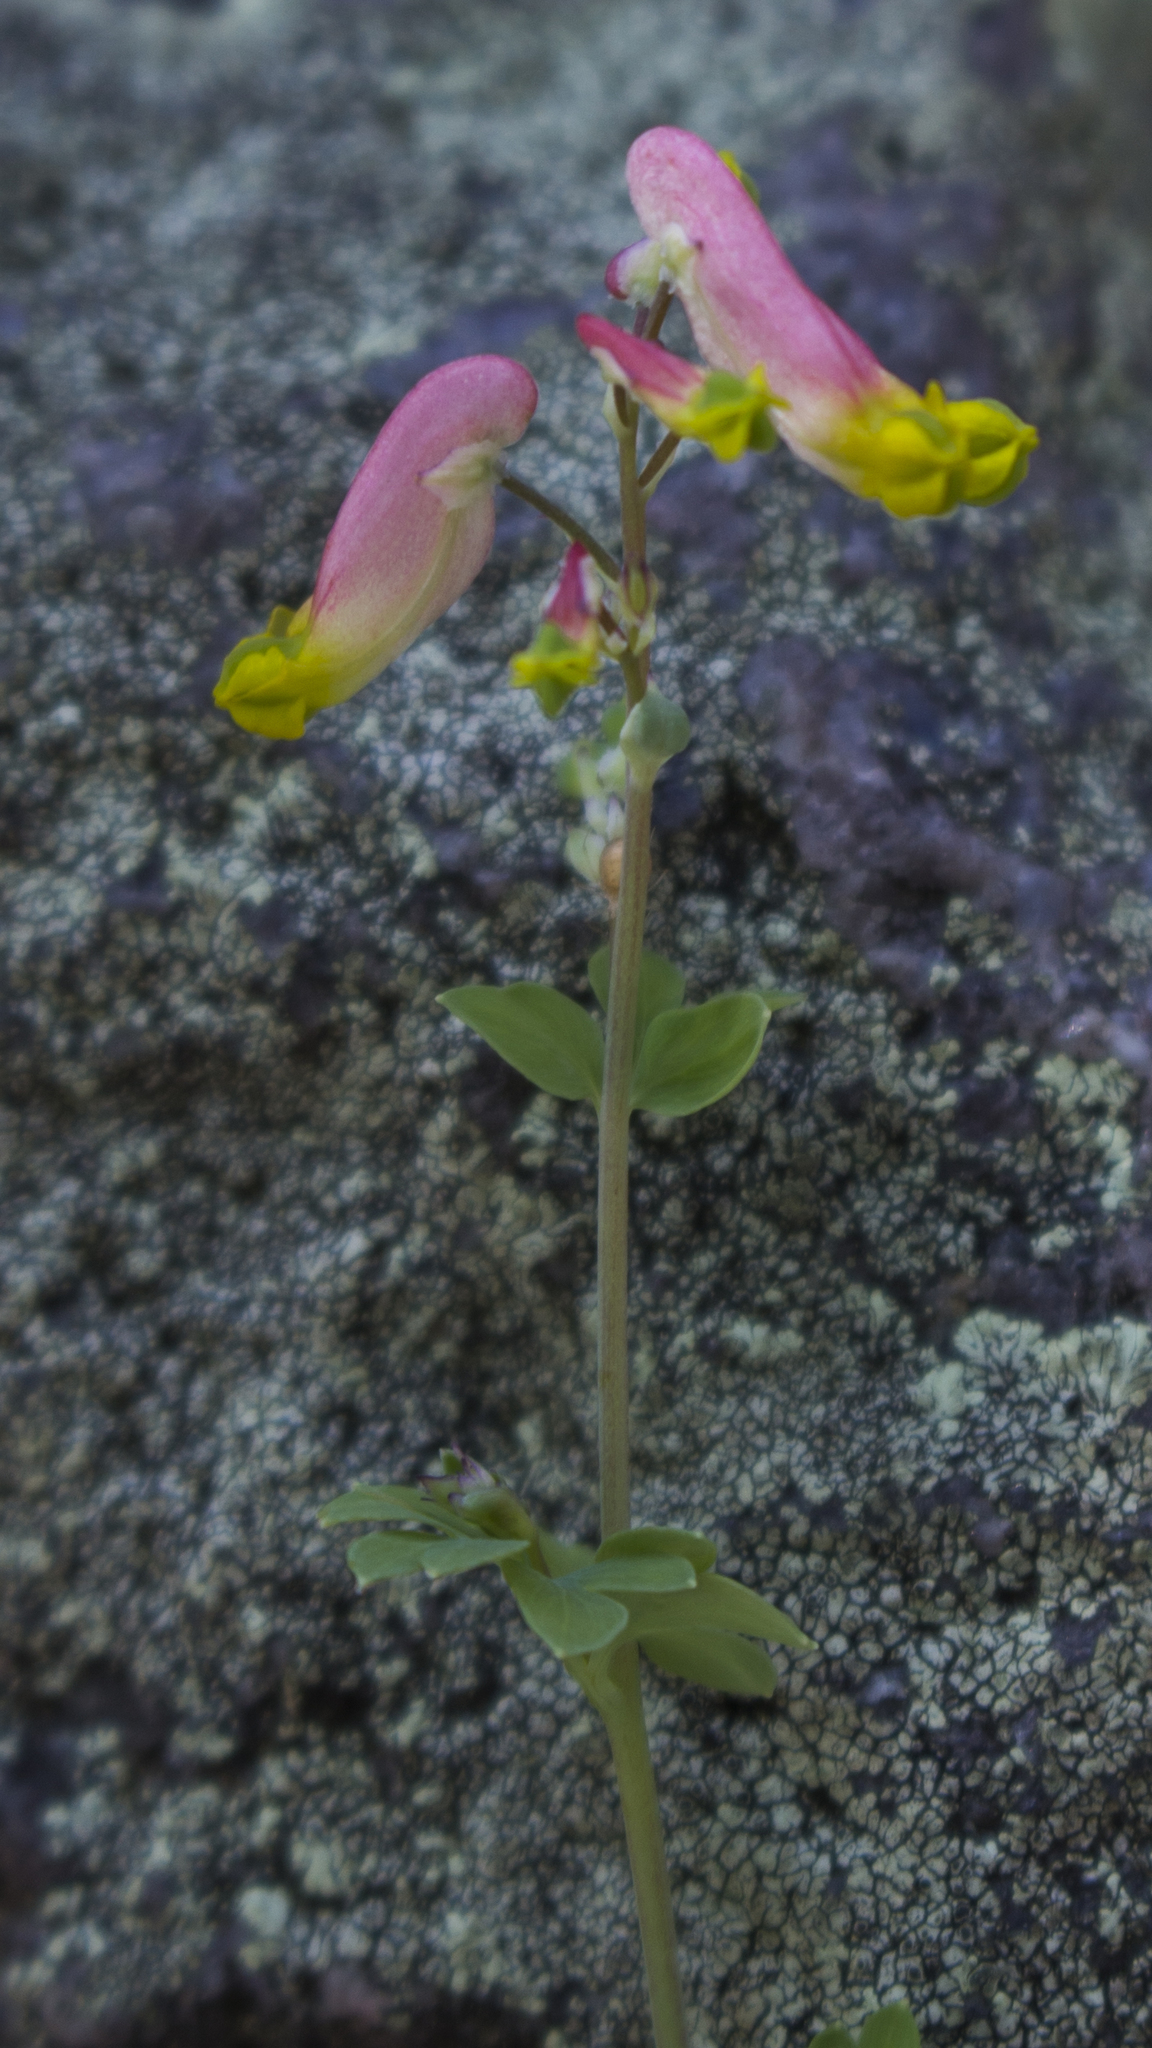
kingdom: Plantae
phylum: Tracheophyta
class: Magnoliopsida
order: Ranunculales
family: Papaveraceae
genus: Capnoides
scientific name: Capnoides sempervirens
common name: Rock harlequin
